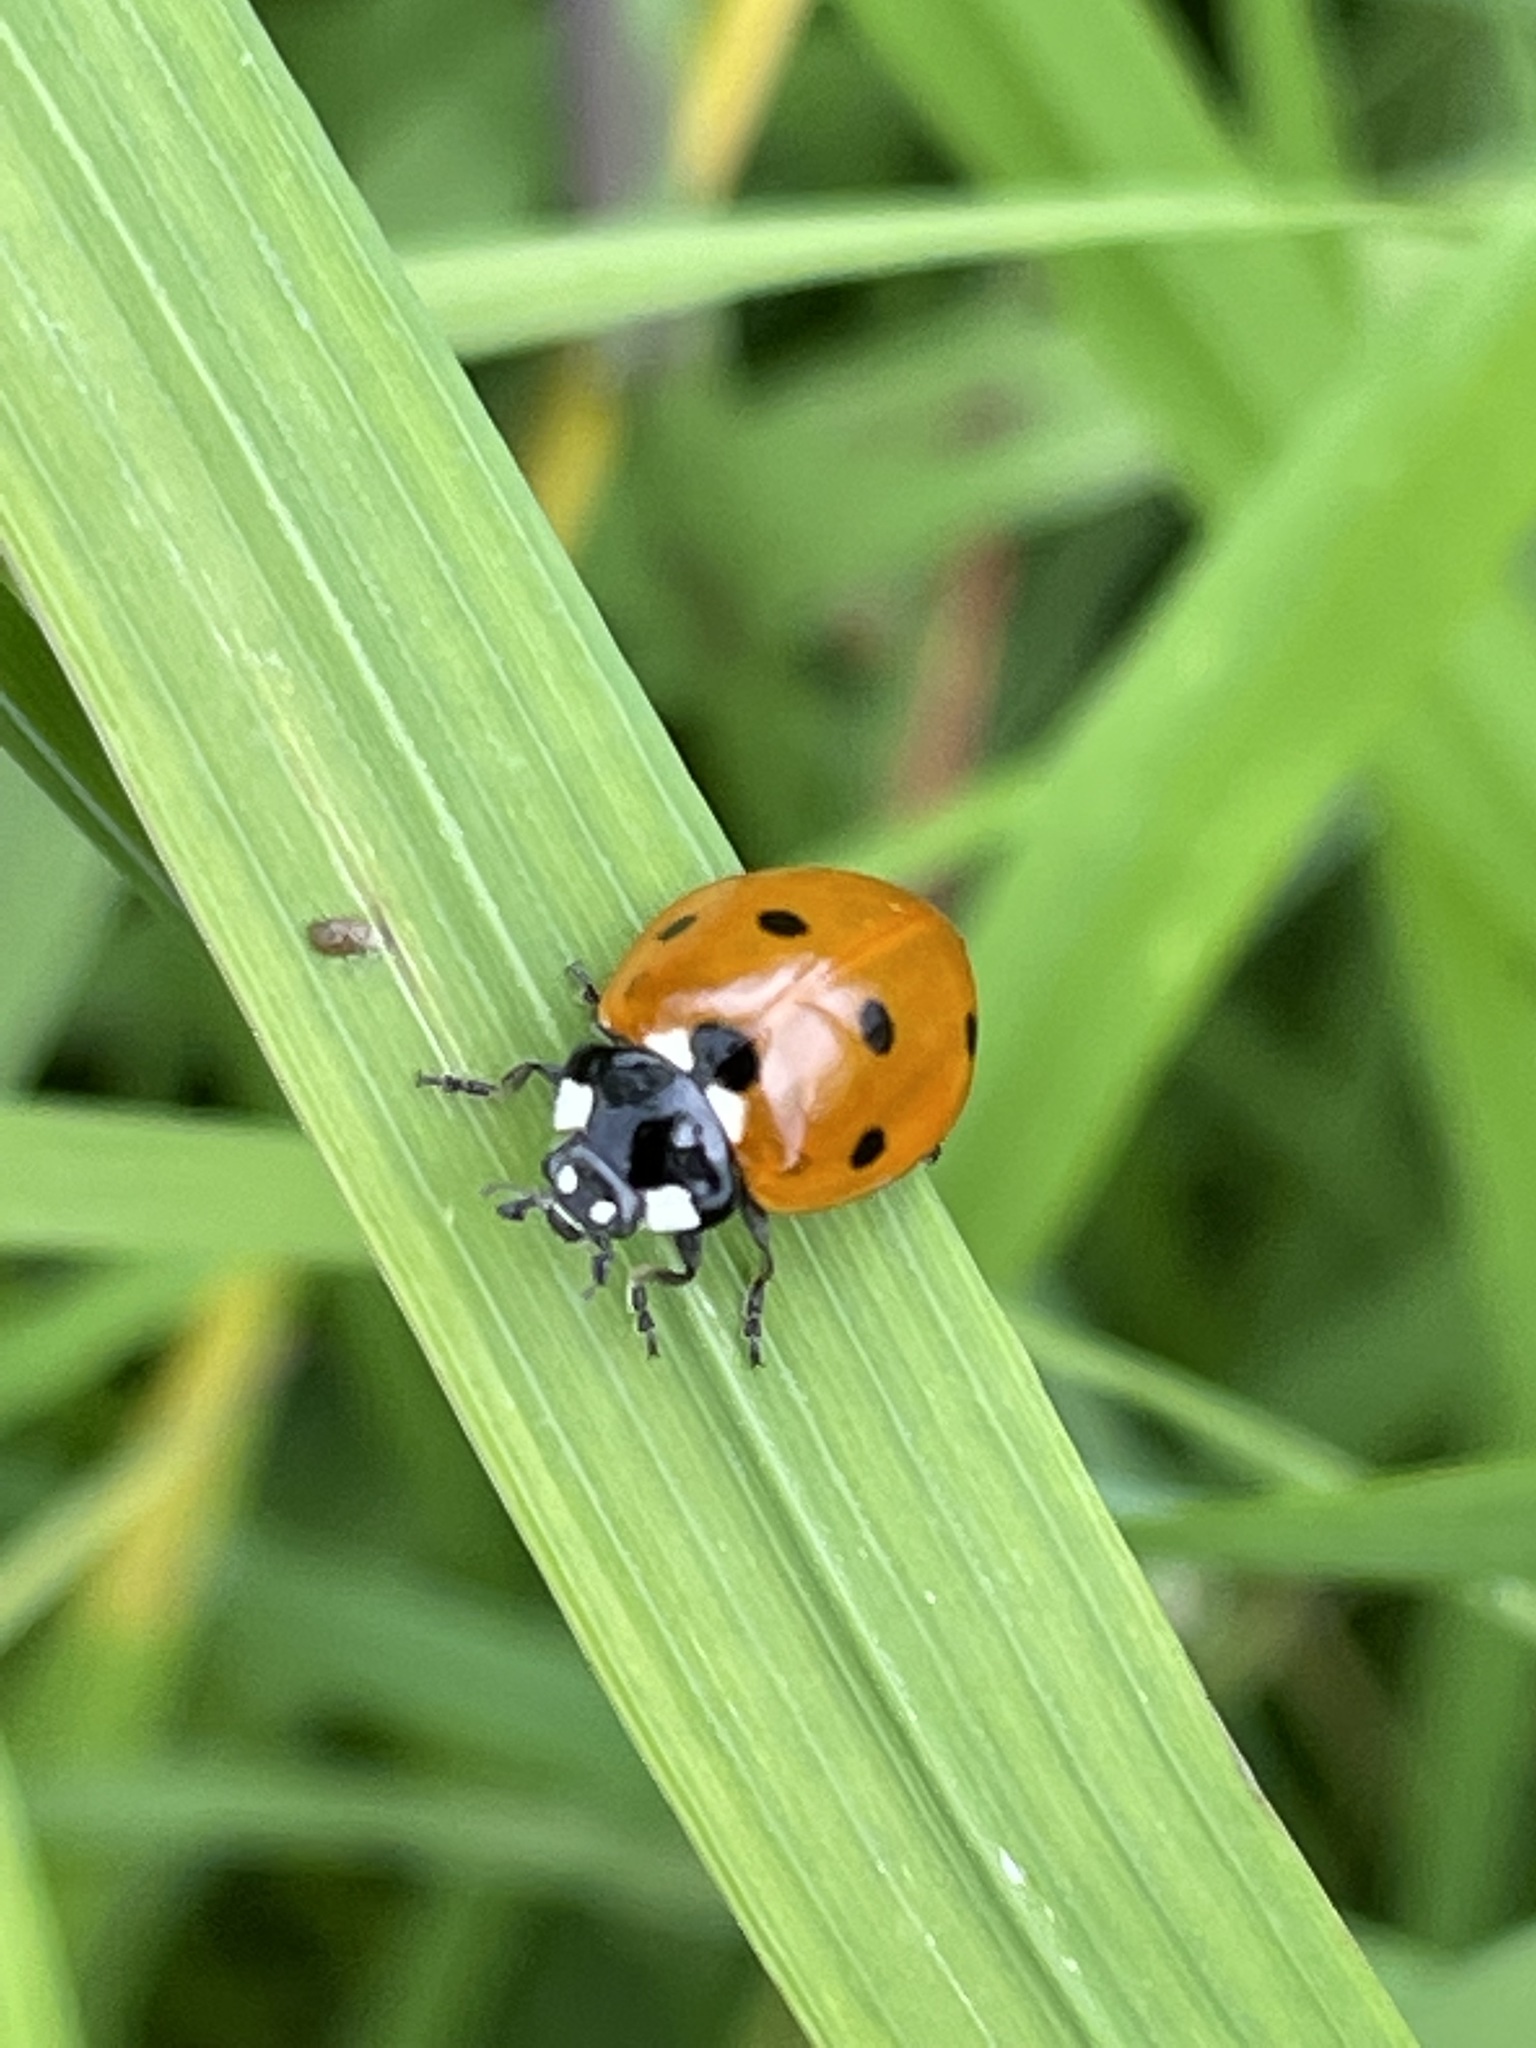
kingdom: Animalia
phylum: Arthropoda
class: Insecta
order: Coleoptera
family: Coccinellidae
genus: Coccinella
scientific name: Coccinella septempunctata
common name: Sevenspotted lady beetle
